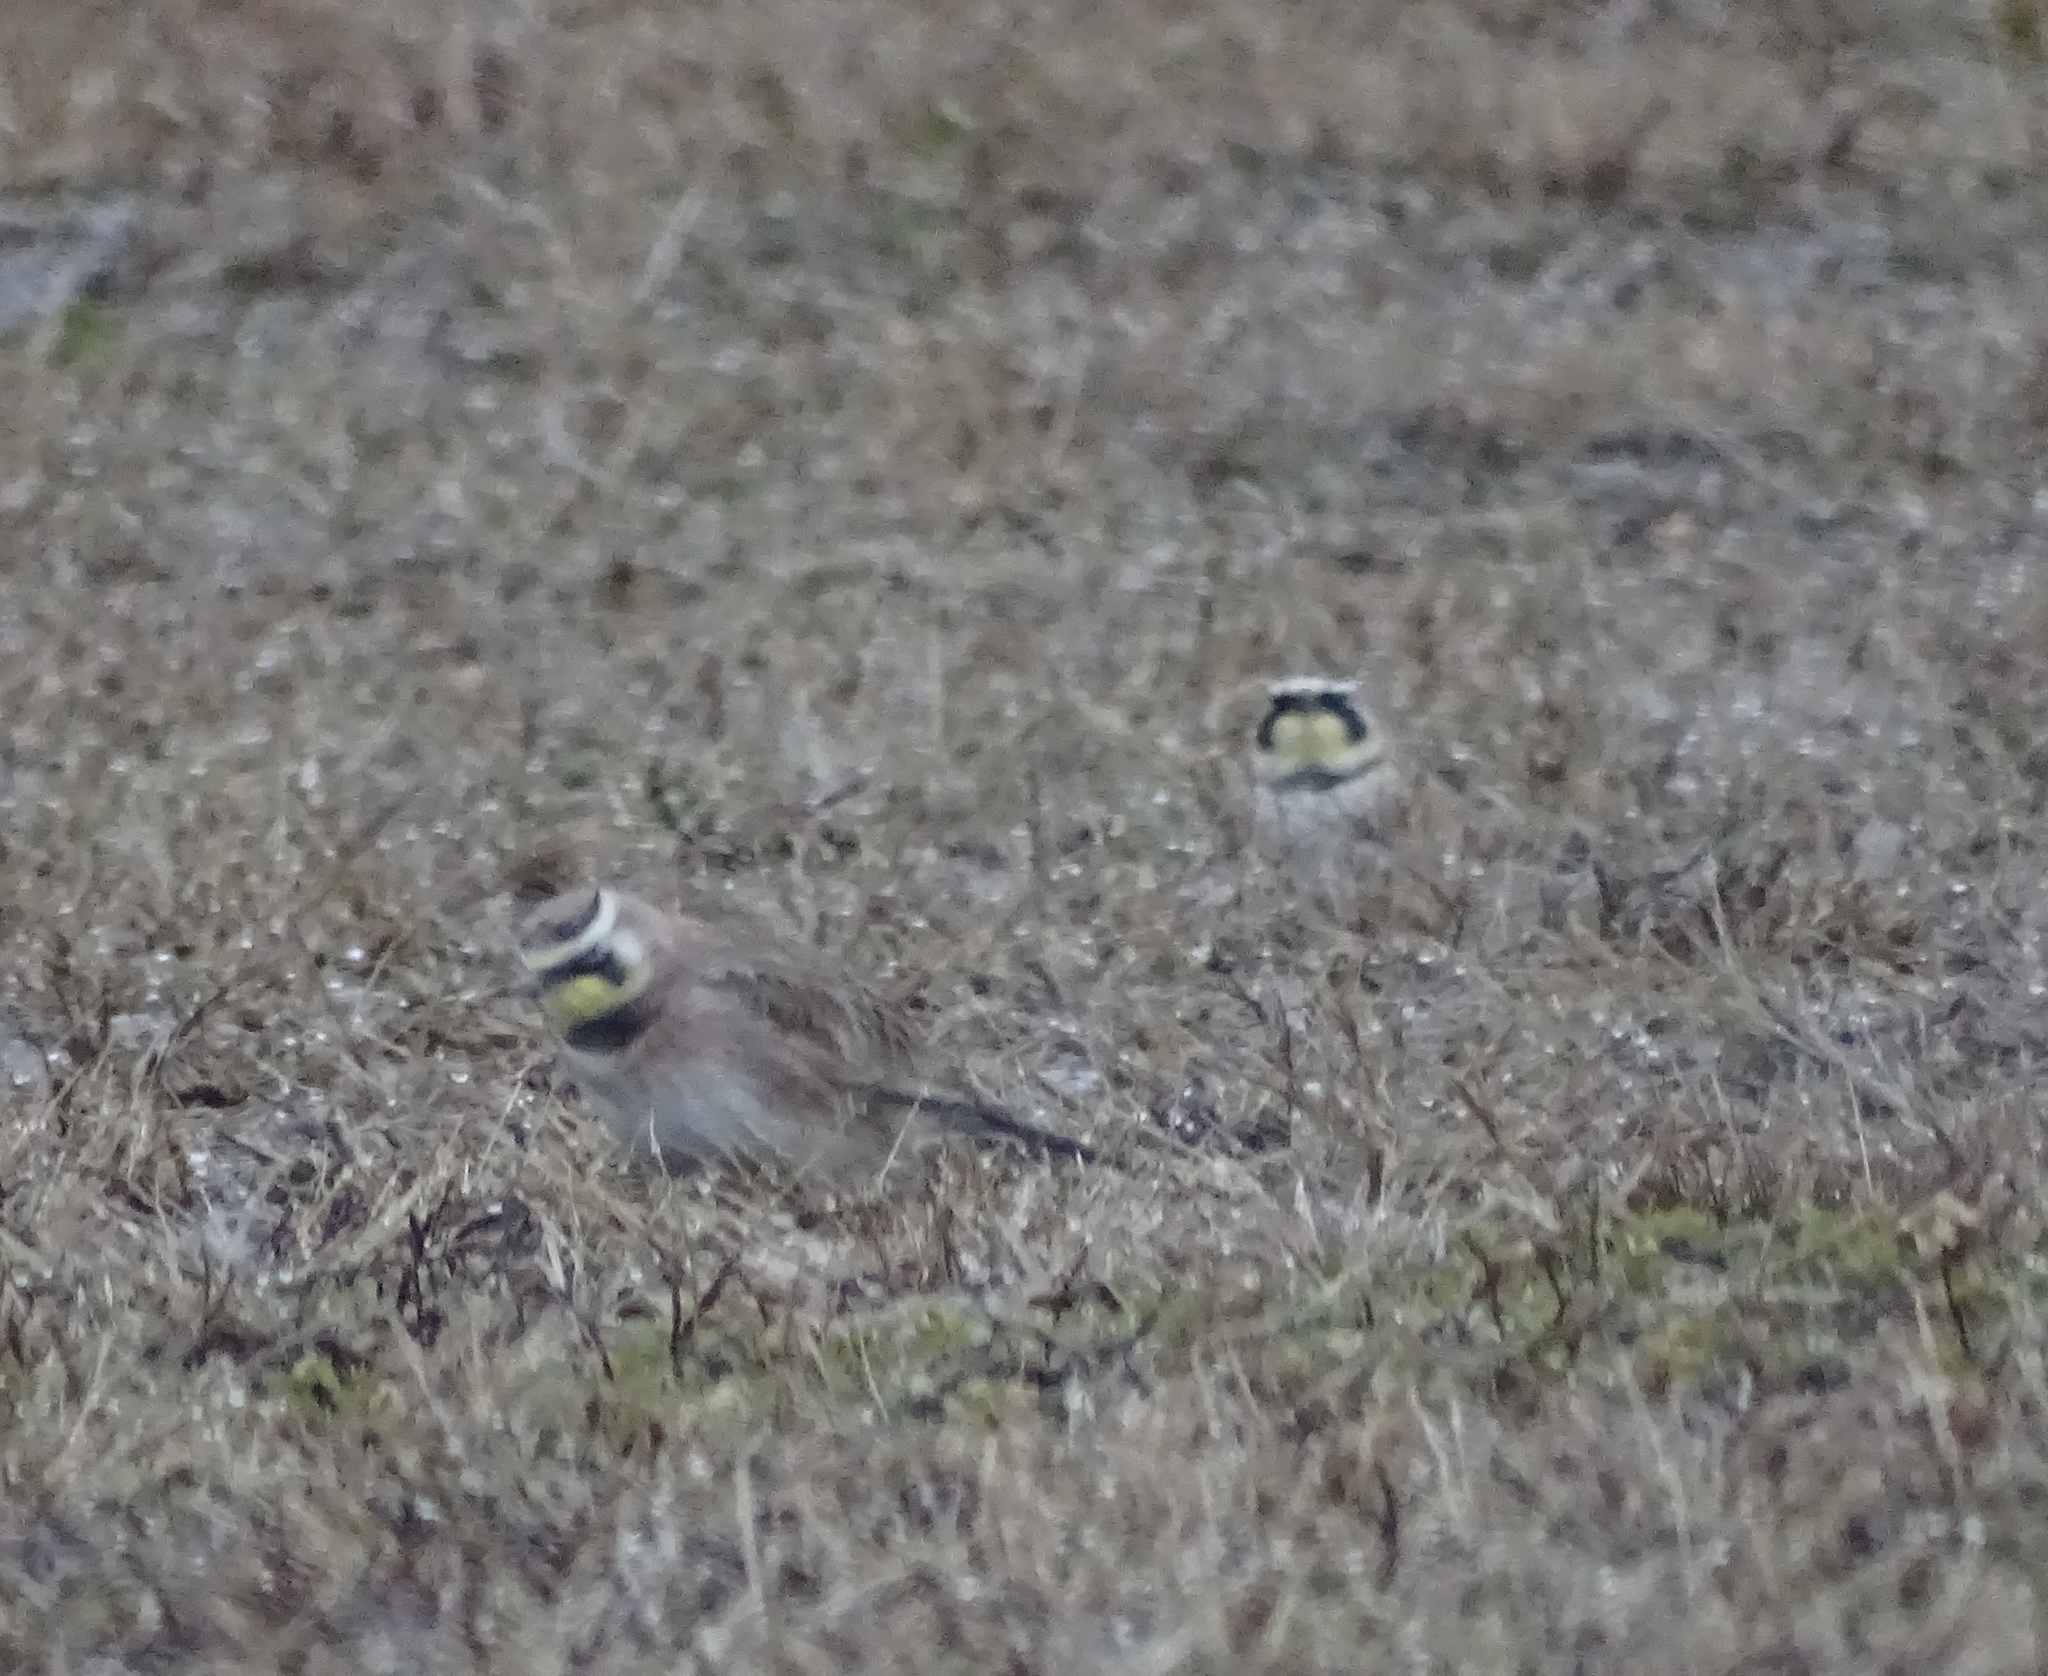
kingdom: Animalia
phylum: Chordata
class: Aves
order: Passeriformes
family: Alaudidae
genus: Eremophila
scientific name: Eremophila alpestris
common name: Horned lark
